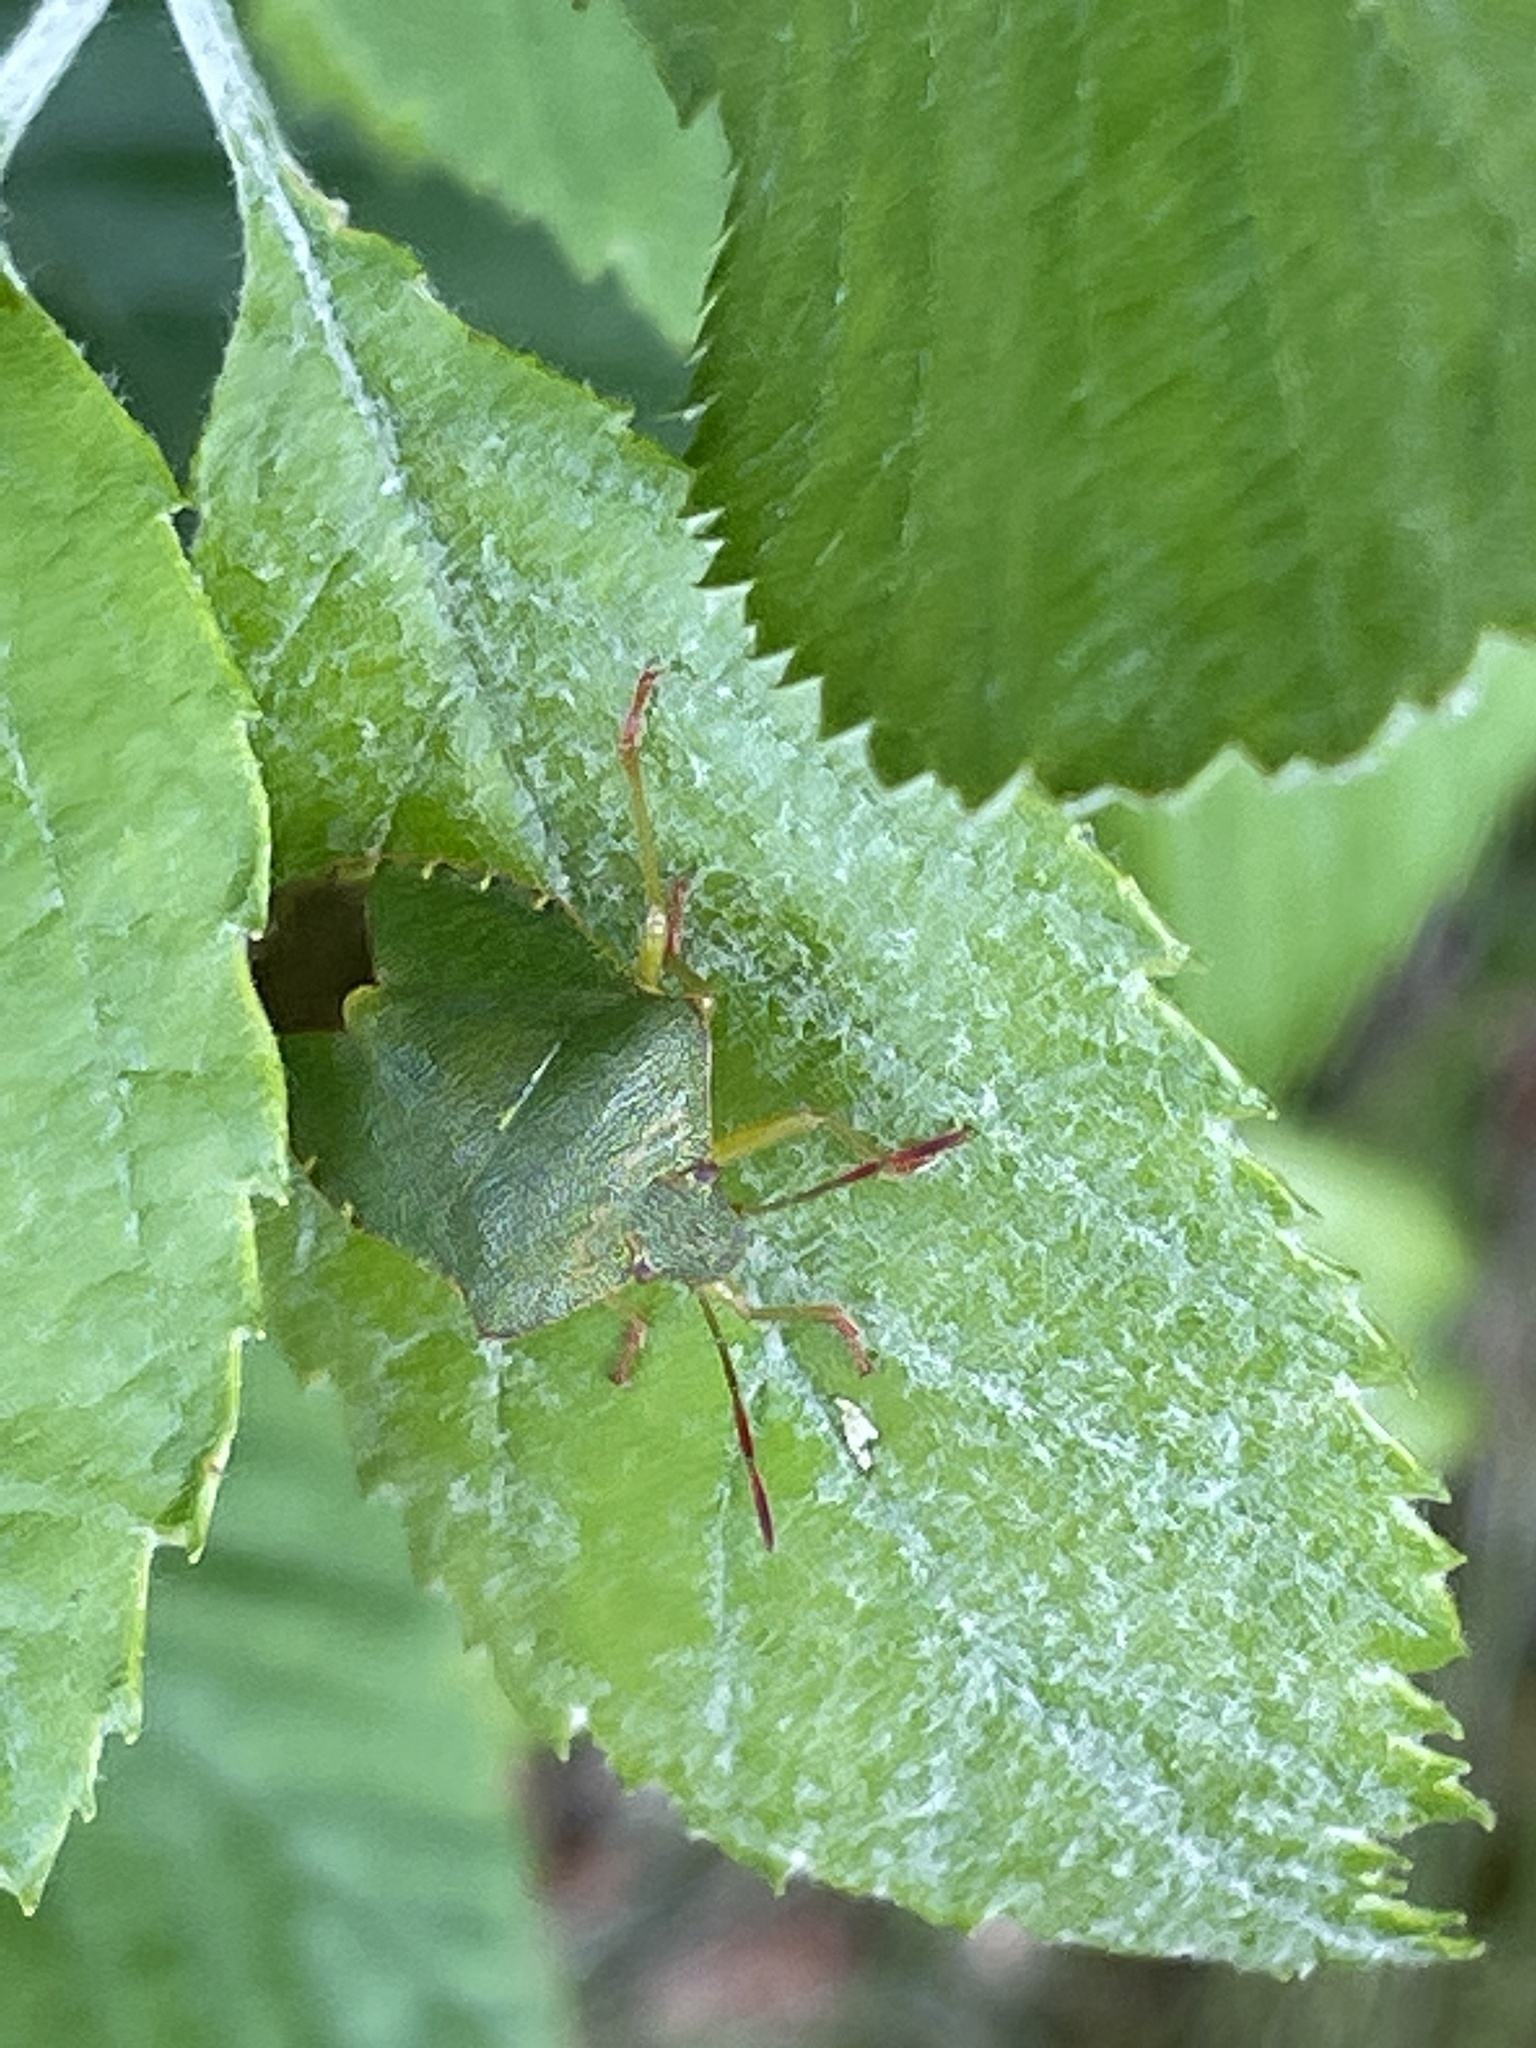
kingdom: Animalia
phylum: Arthropoda
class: Insecta
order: Hemiptera
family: Pentatomidae
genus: Palomena
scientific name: Palomena prasina
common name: Green shieldbug
